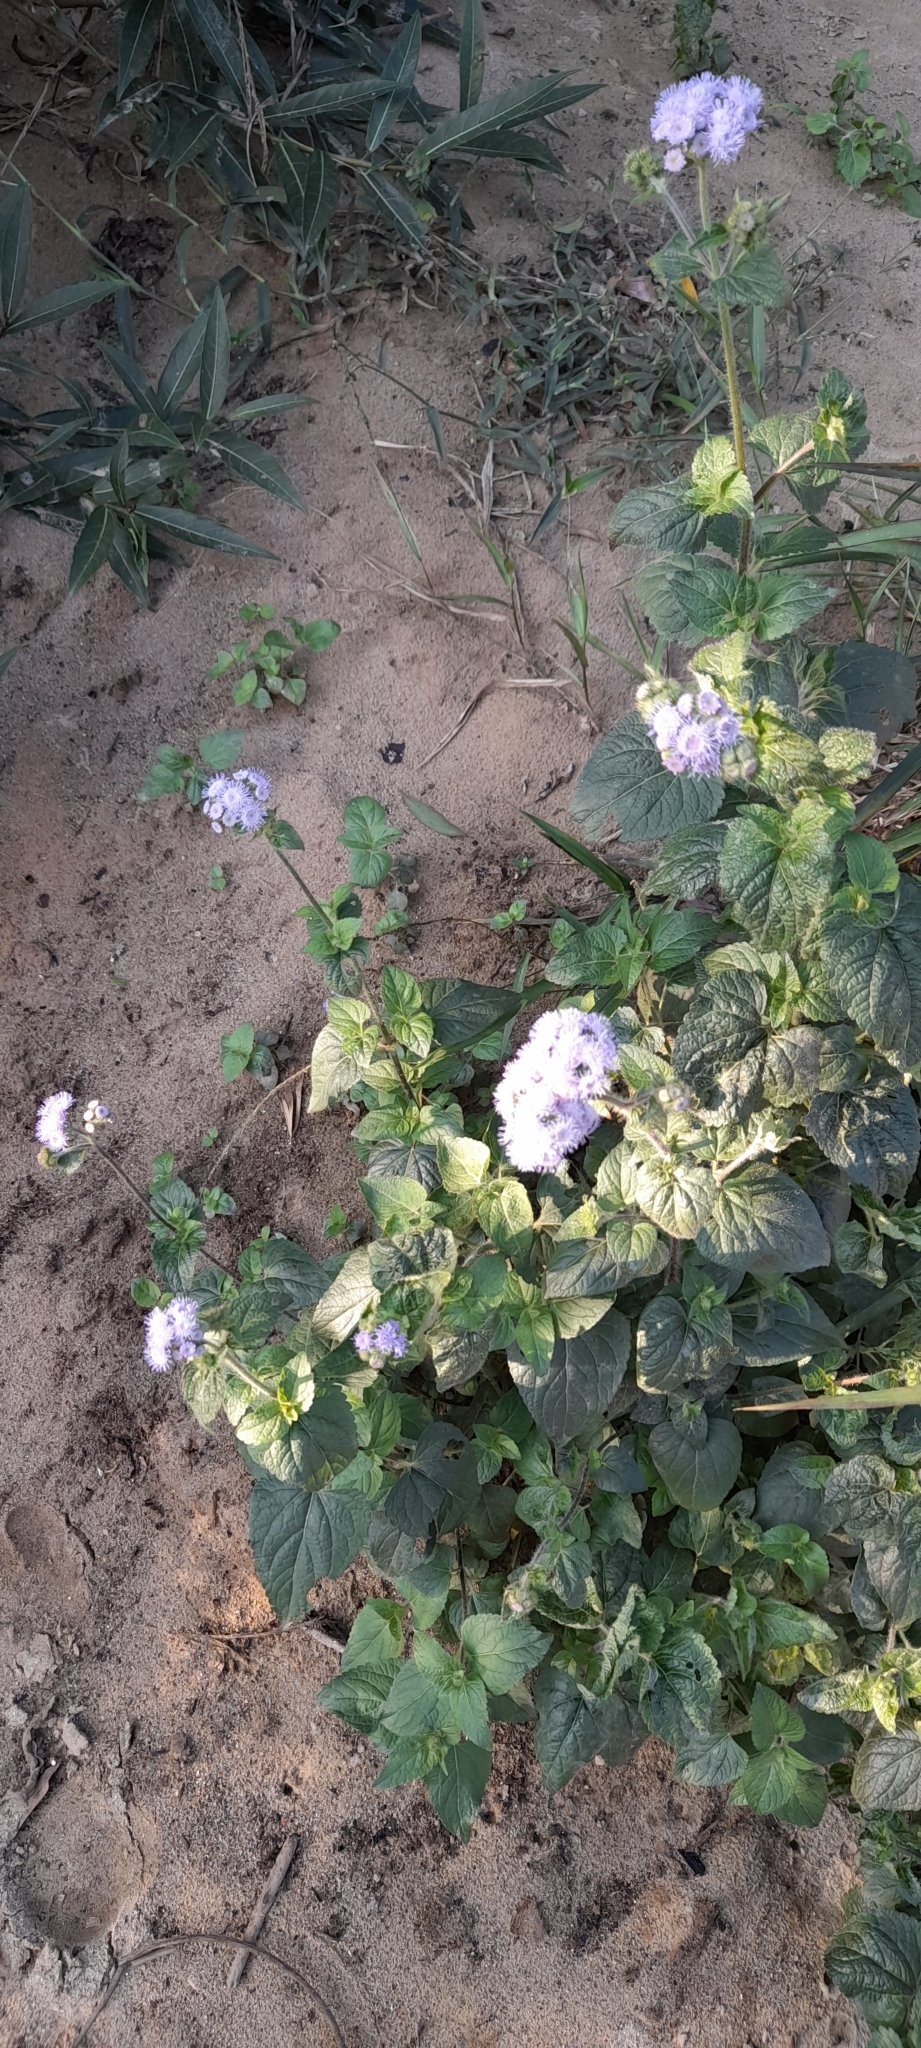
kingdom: Plantae
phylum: Tracheophyta
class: Magnoliopsida
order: Asterales
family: Asteraceae
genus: Ageratum
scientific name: Ageratum houstonianum
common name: Bluemink
